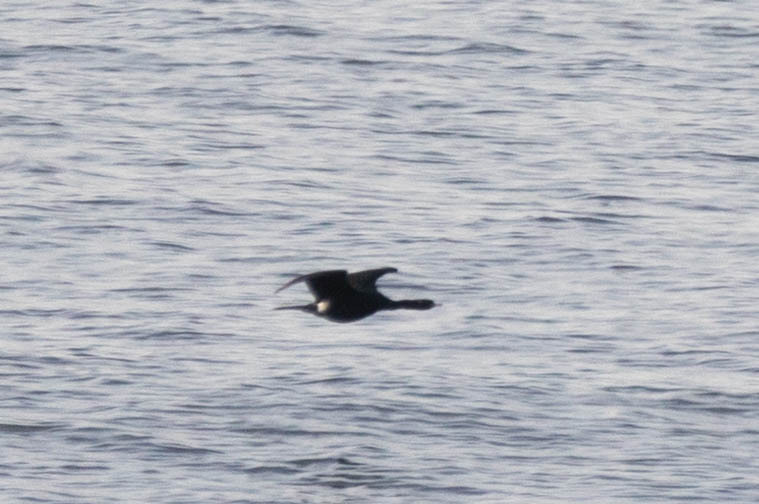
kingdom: Animalia
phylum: Chordata
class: Aves
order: Suliformes
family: Phalacrocoracidae
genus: Phalacrocorax
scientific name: Phalacrocorax pelagicus
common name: Pelagic cormorant
